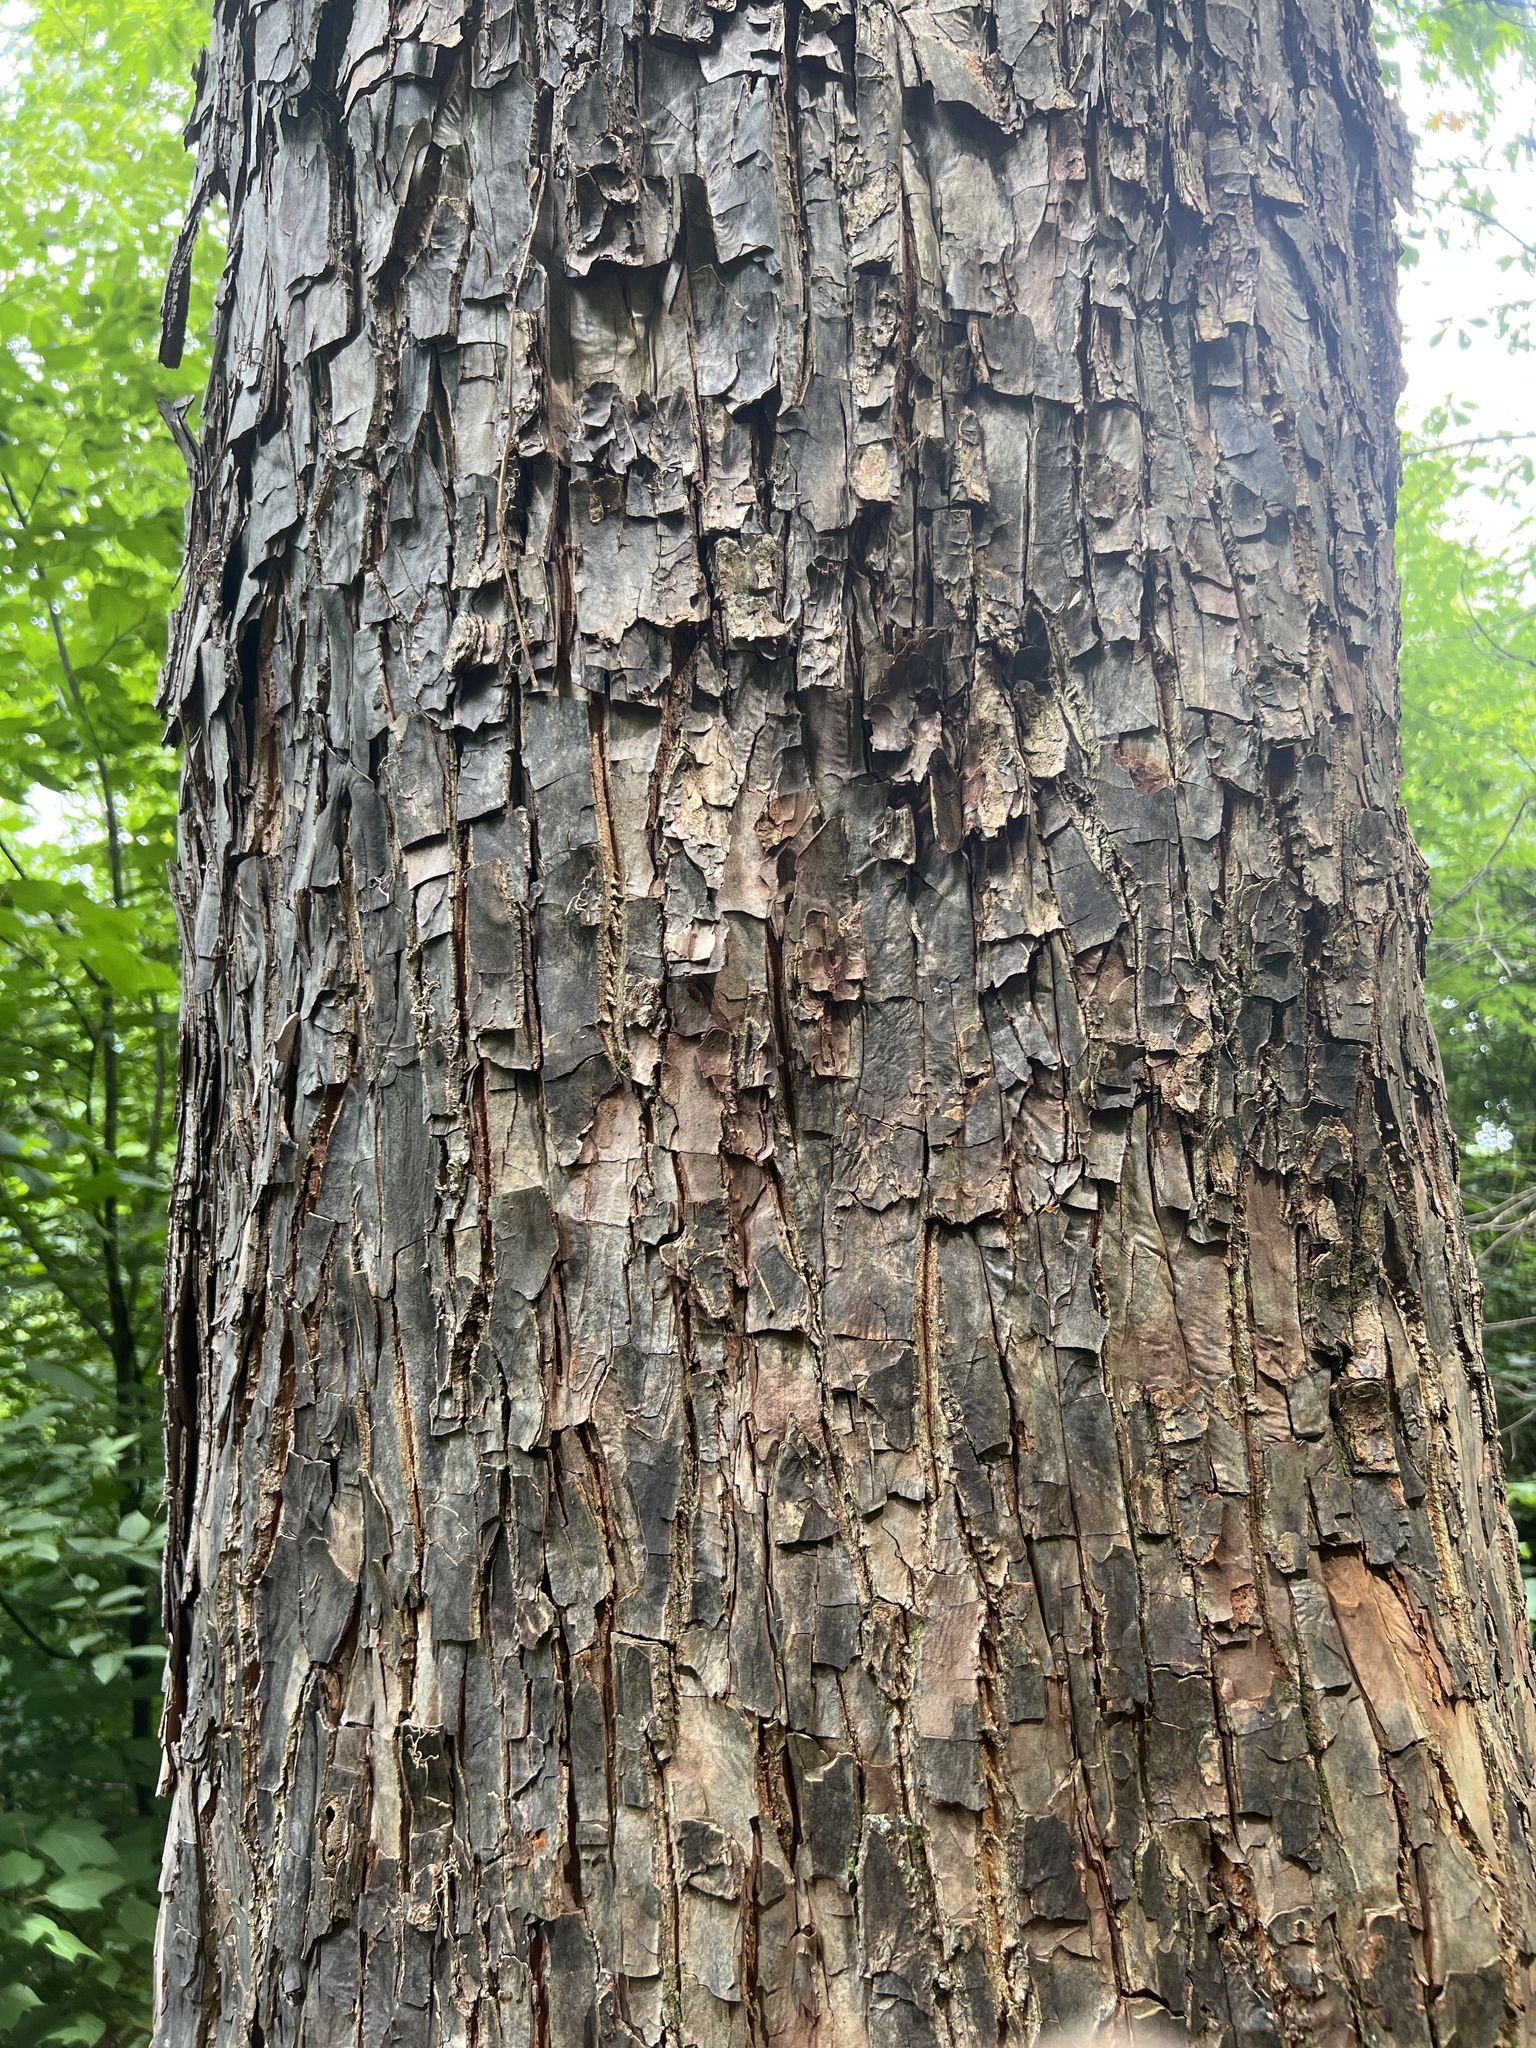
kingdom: Plantae
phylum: Tracheophyta
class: Magnoliopsida
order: Ericales
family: Styracaceae
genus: Halesia
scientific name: Halesia tetraptera
